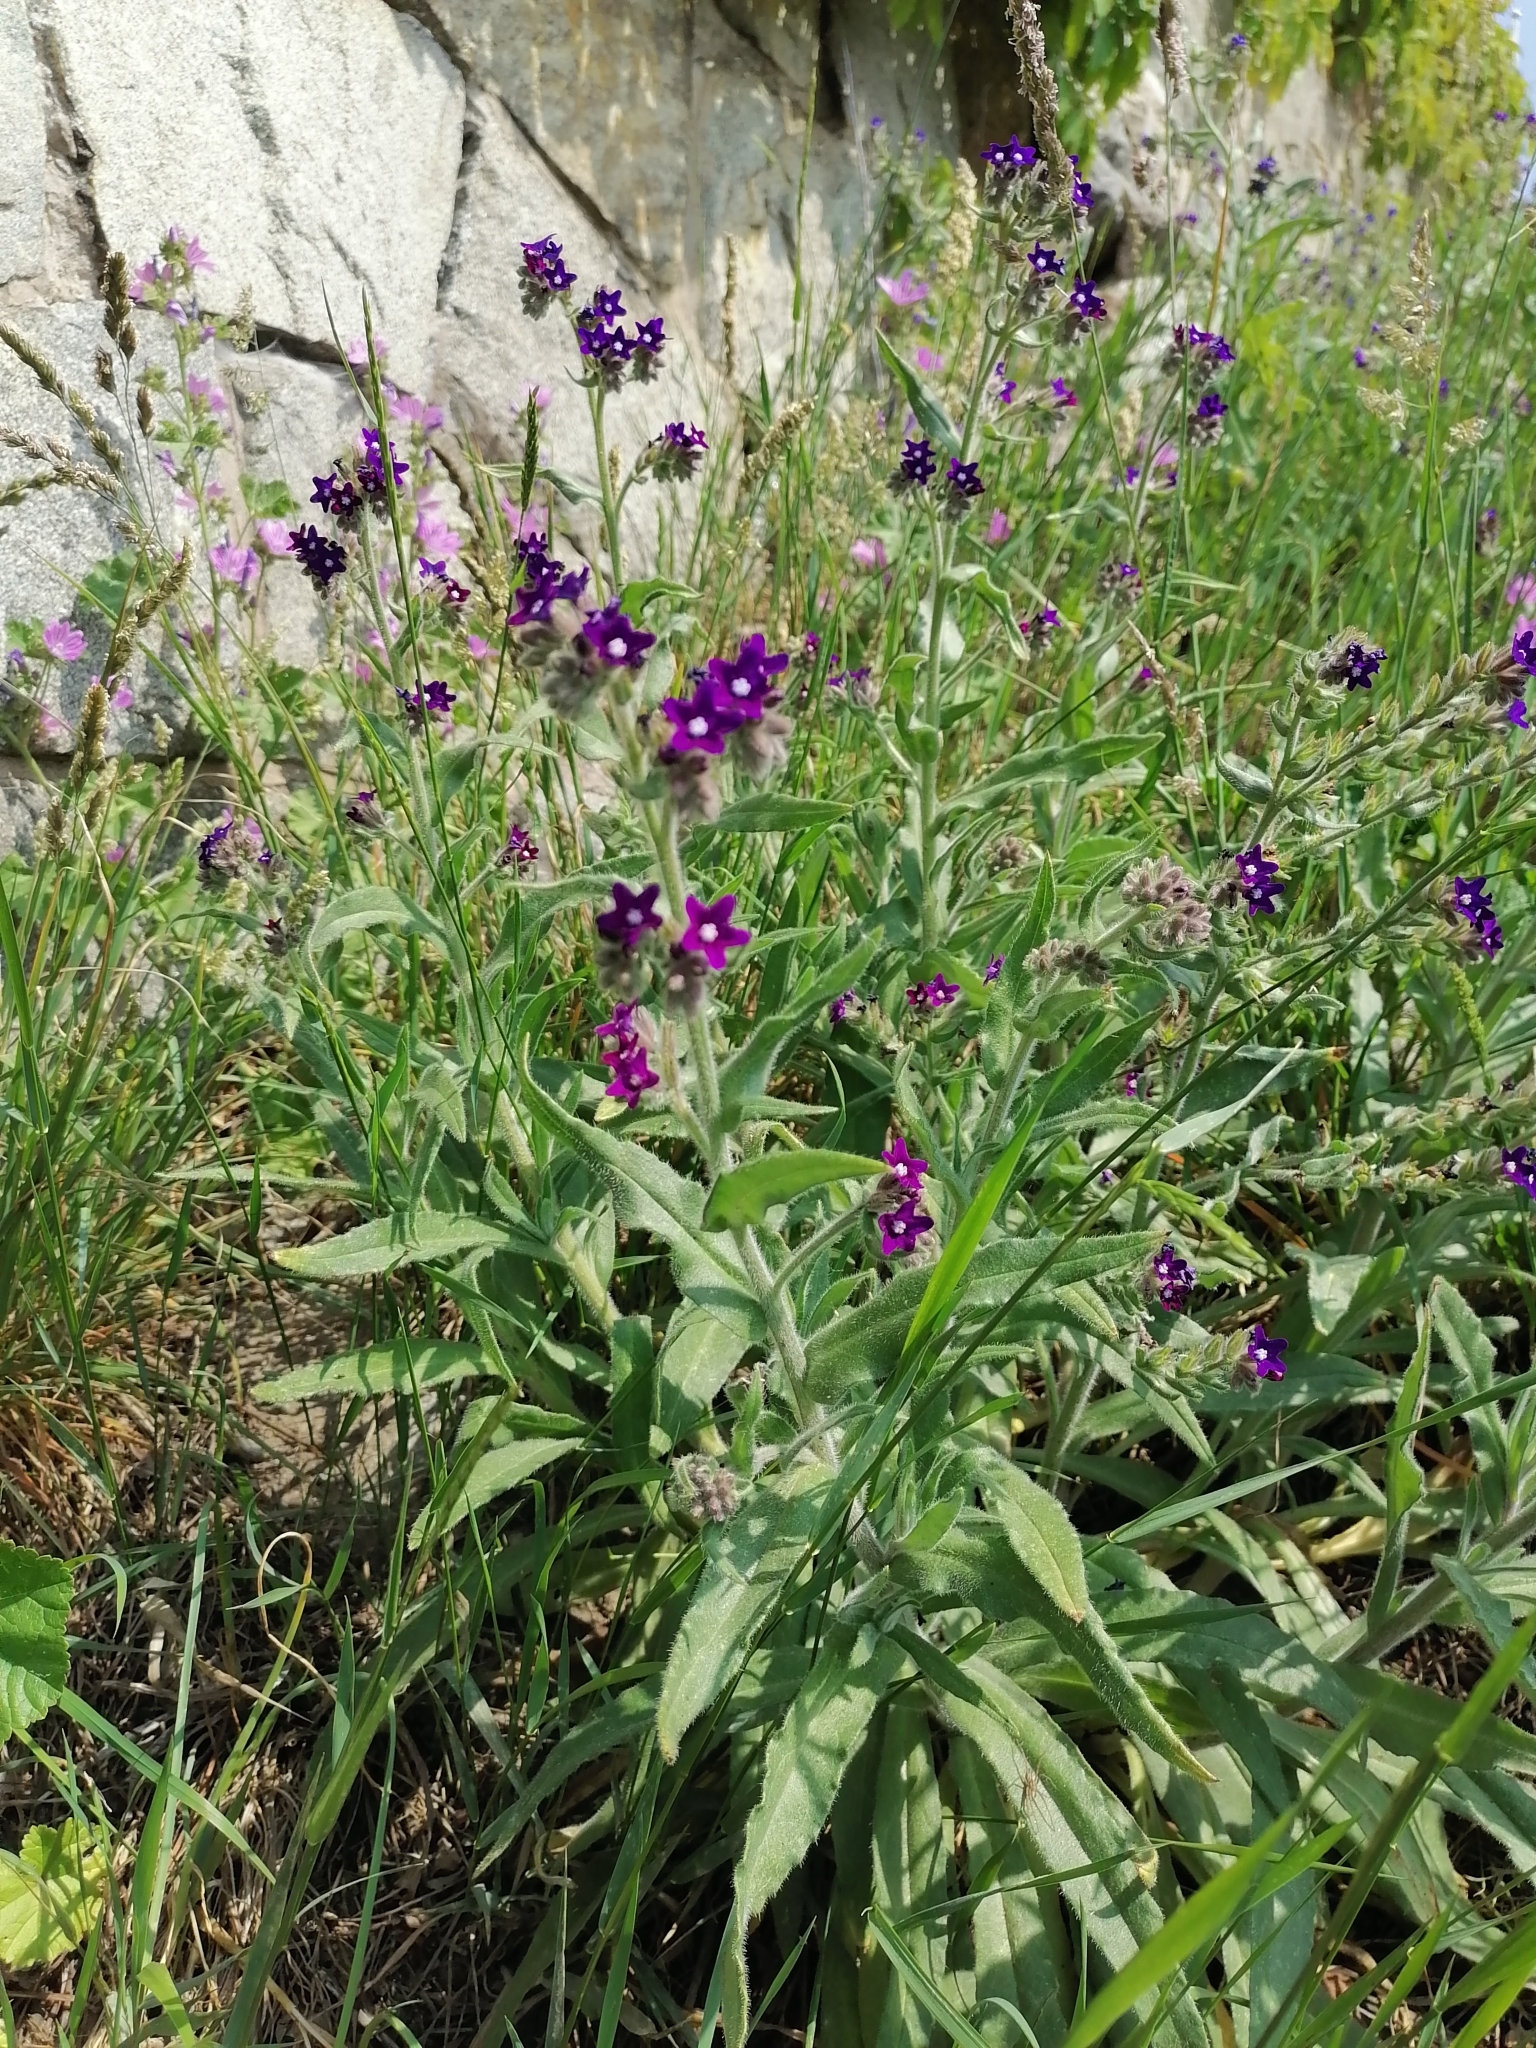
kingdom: Plantae
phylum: Tracheophyta
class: Magnoliopsida
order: Boraginales
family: Boraginaceae
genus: Anchusa
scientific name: Anchusa officinalis
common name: Alkanet
